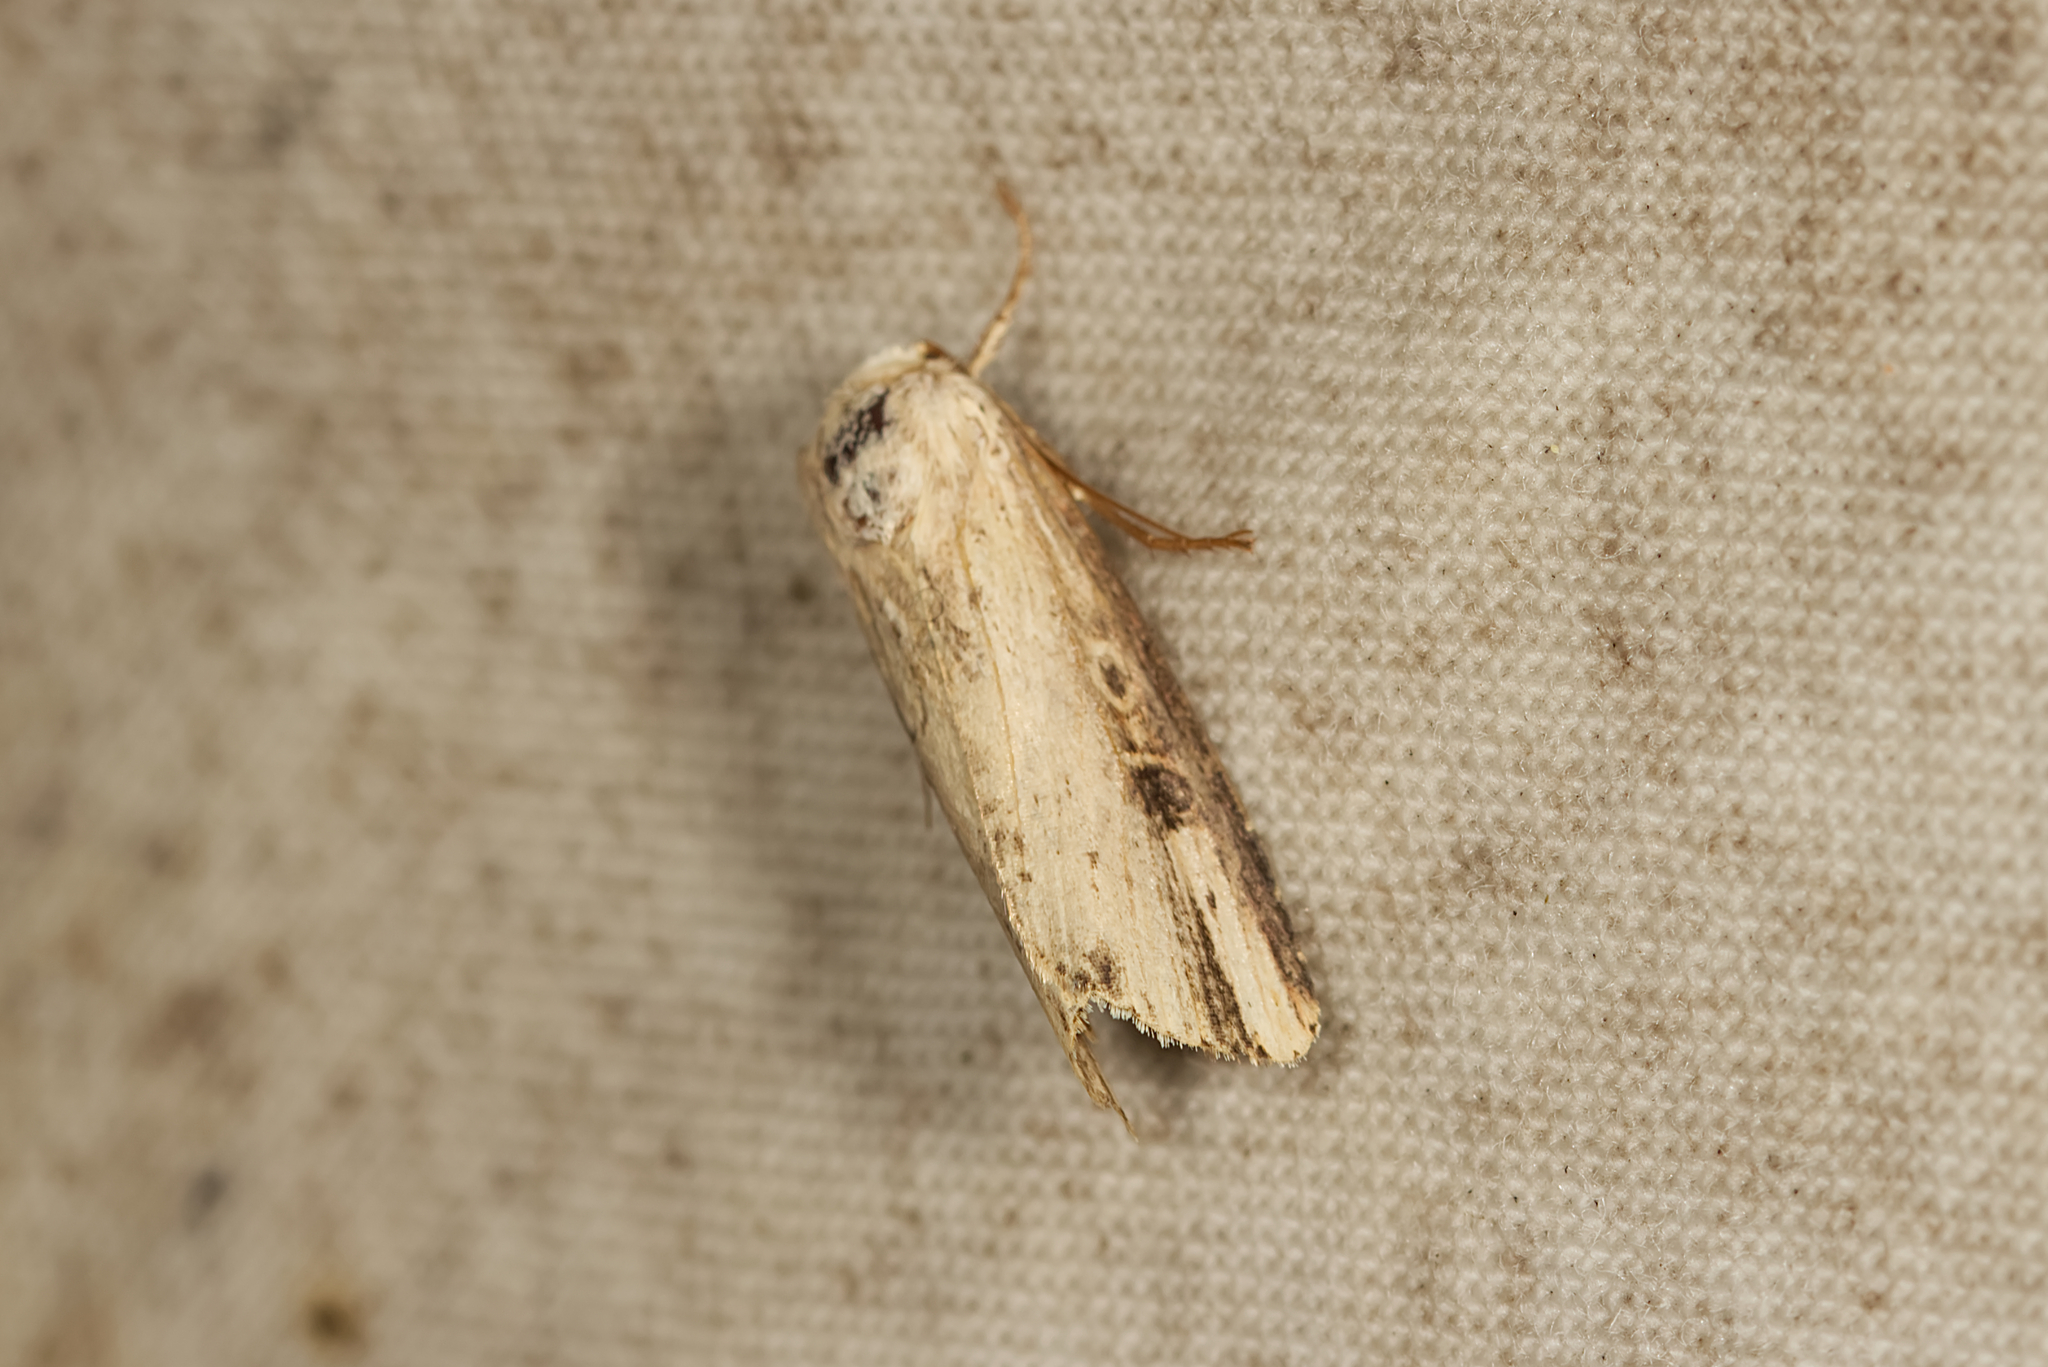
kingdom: Animalia
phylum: Arthropoda
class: Insecta
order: Lepidoptera
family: Noctuidae
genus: Axylia
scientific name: Axylia putris
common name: Flame
